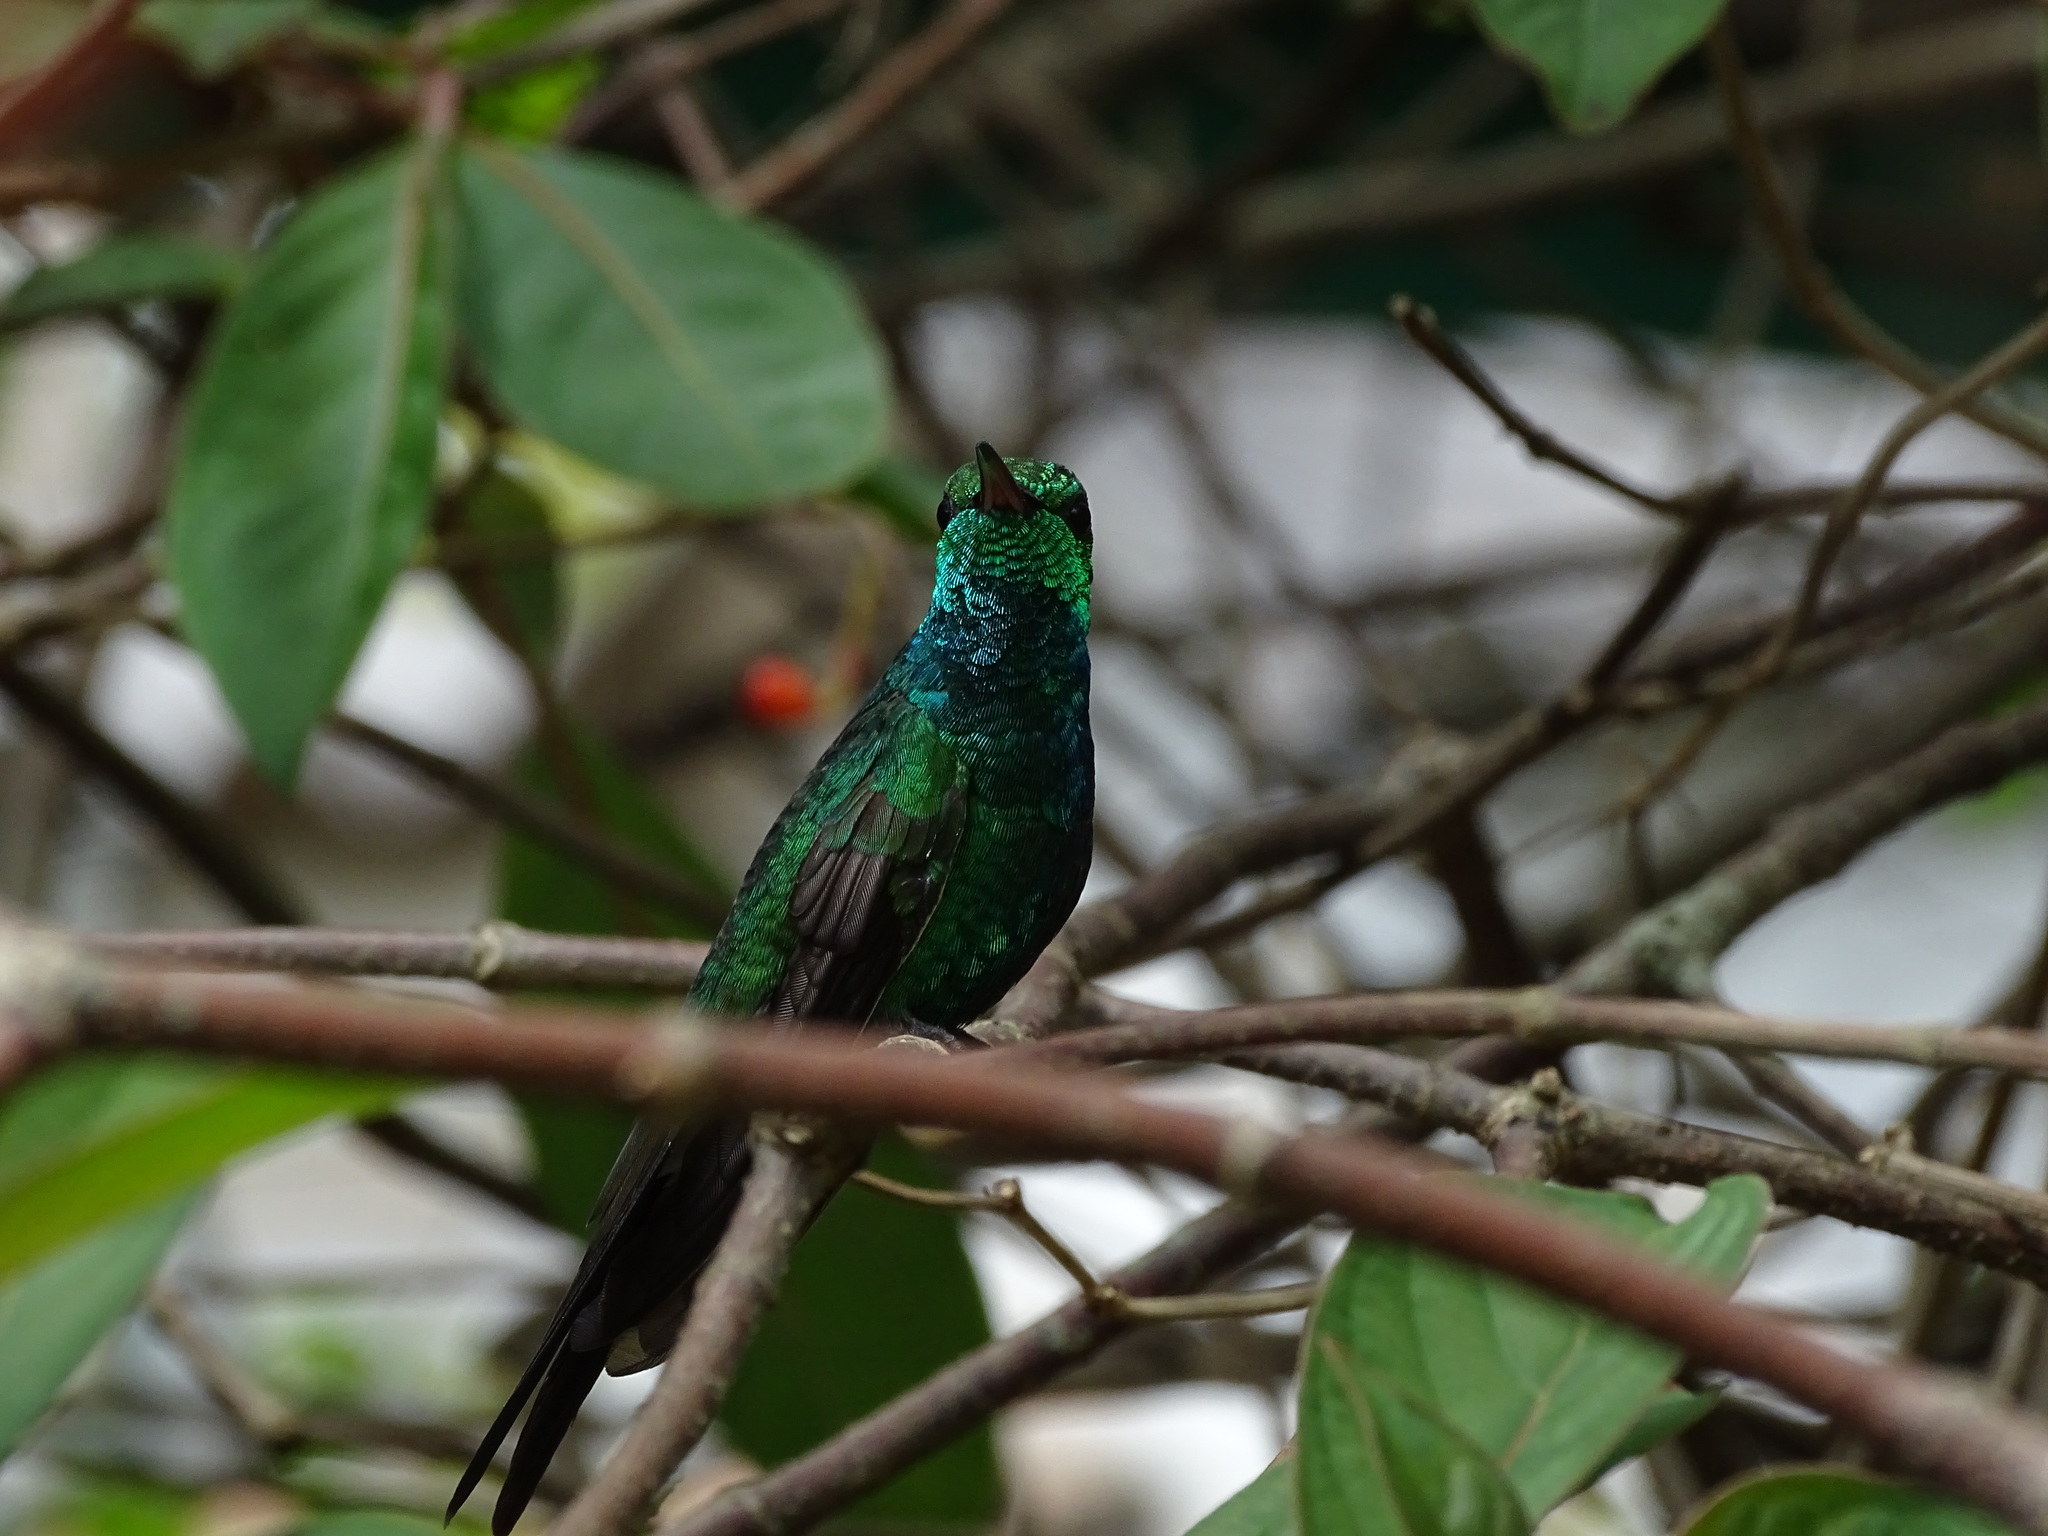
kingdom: Animalia
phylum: Chordata
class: Aves
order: Apodiformes
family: Trochilidae
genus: Riccordia
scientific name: Riccordia ricordii
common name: Cuban emerald
